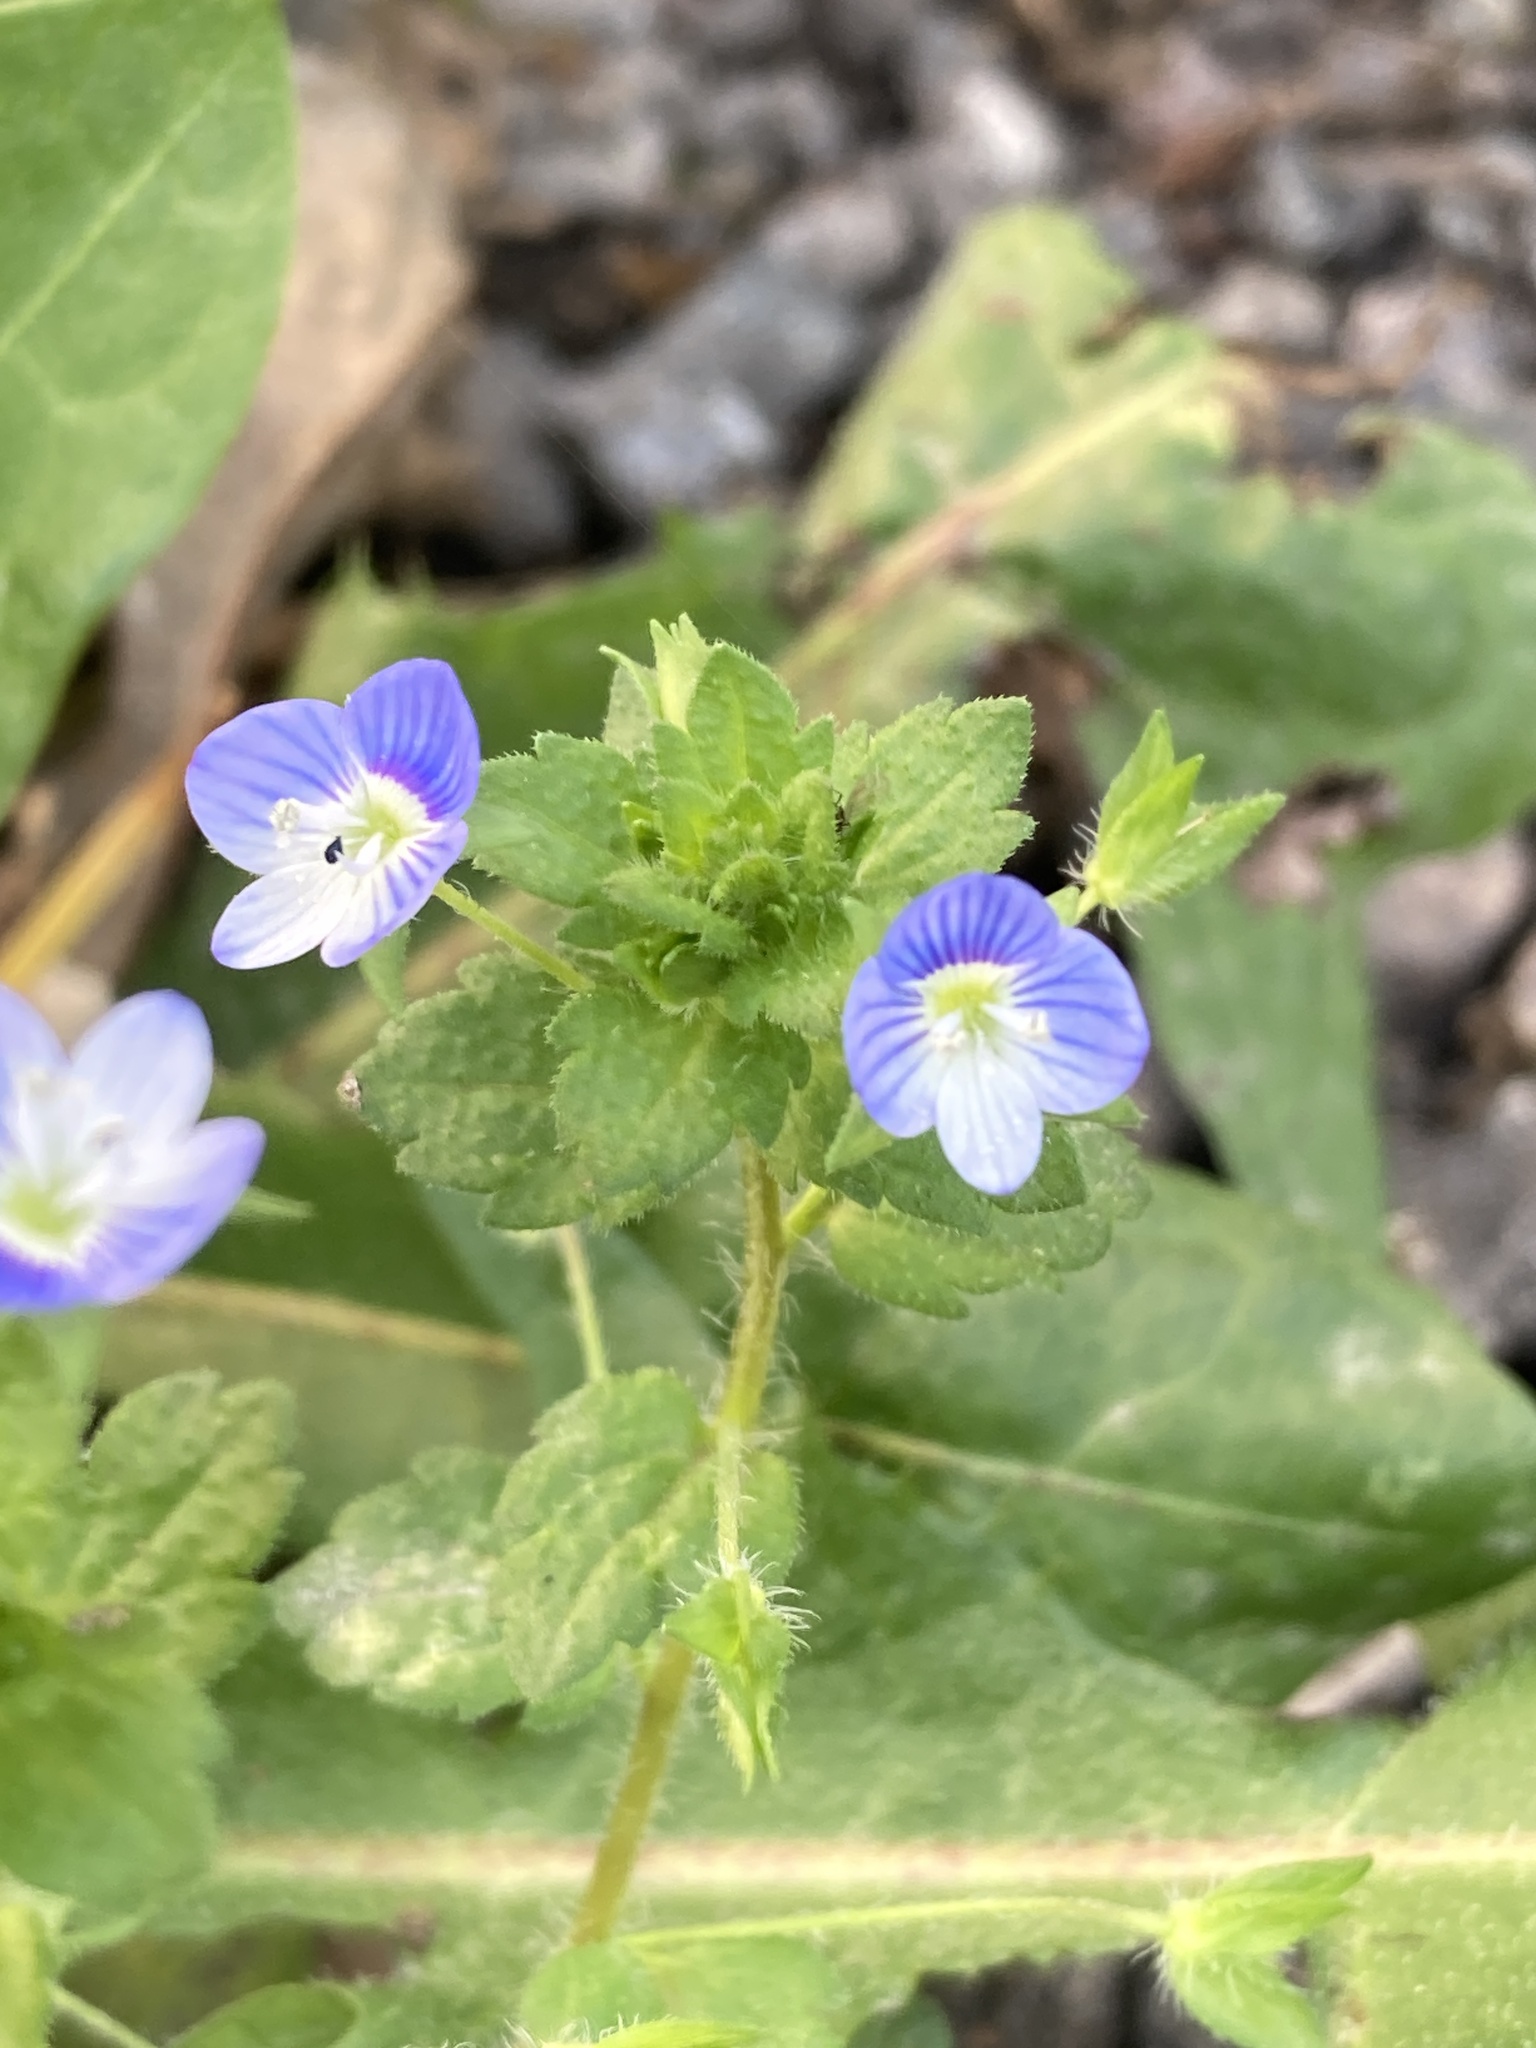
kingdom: Plantae
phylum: Tracheophyta
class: Magnoliopsida
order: Lamiales
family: Plantaginaceae
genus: Veronica
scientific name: Veronica persica
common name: Common field-speedwell
